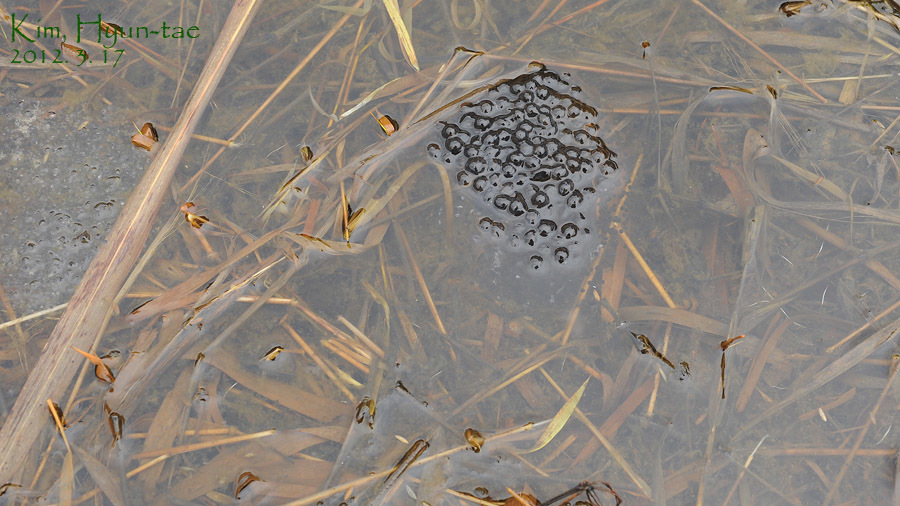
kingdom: Animalia
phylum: Chordata
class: Amphibia
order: Anura
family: Ranidae
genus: Rana
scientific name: Rana coreana
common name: Korean brown frog
